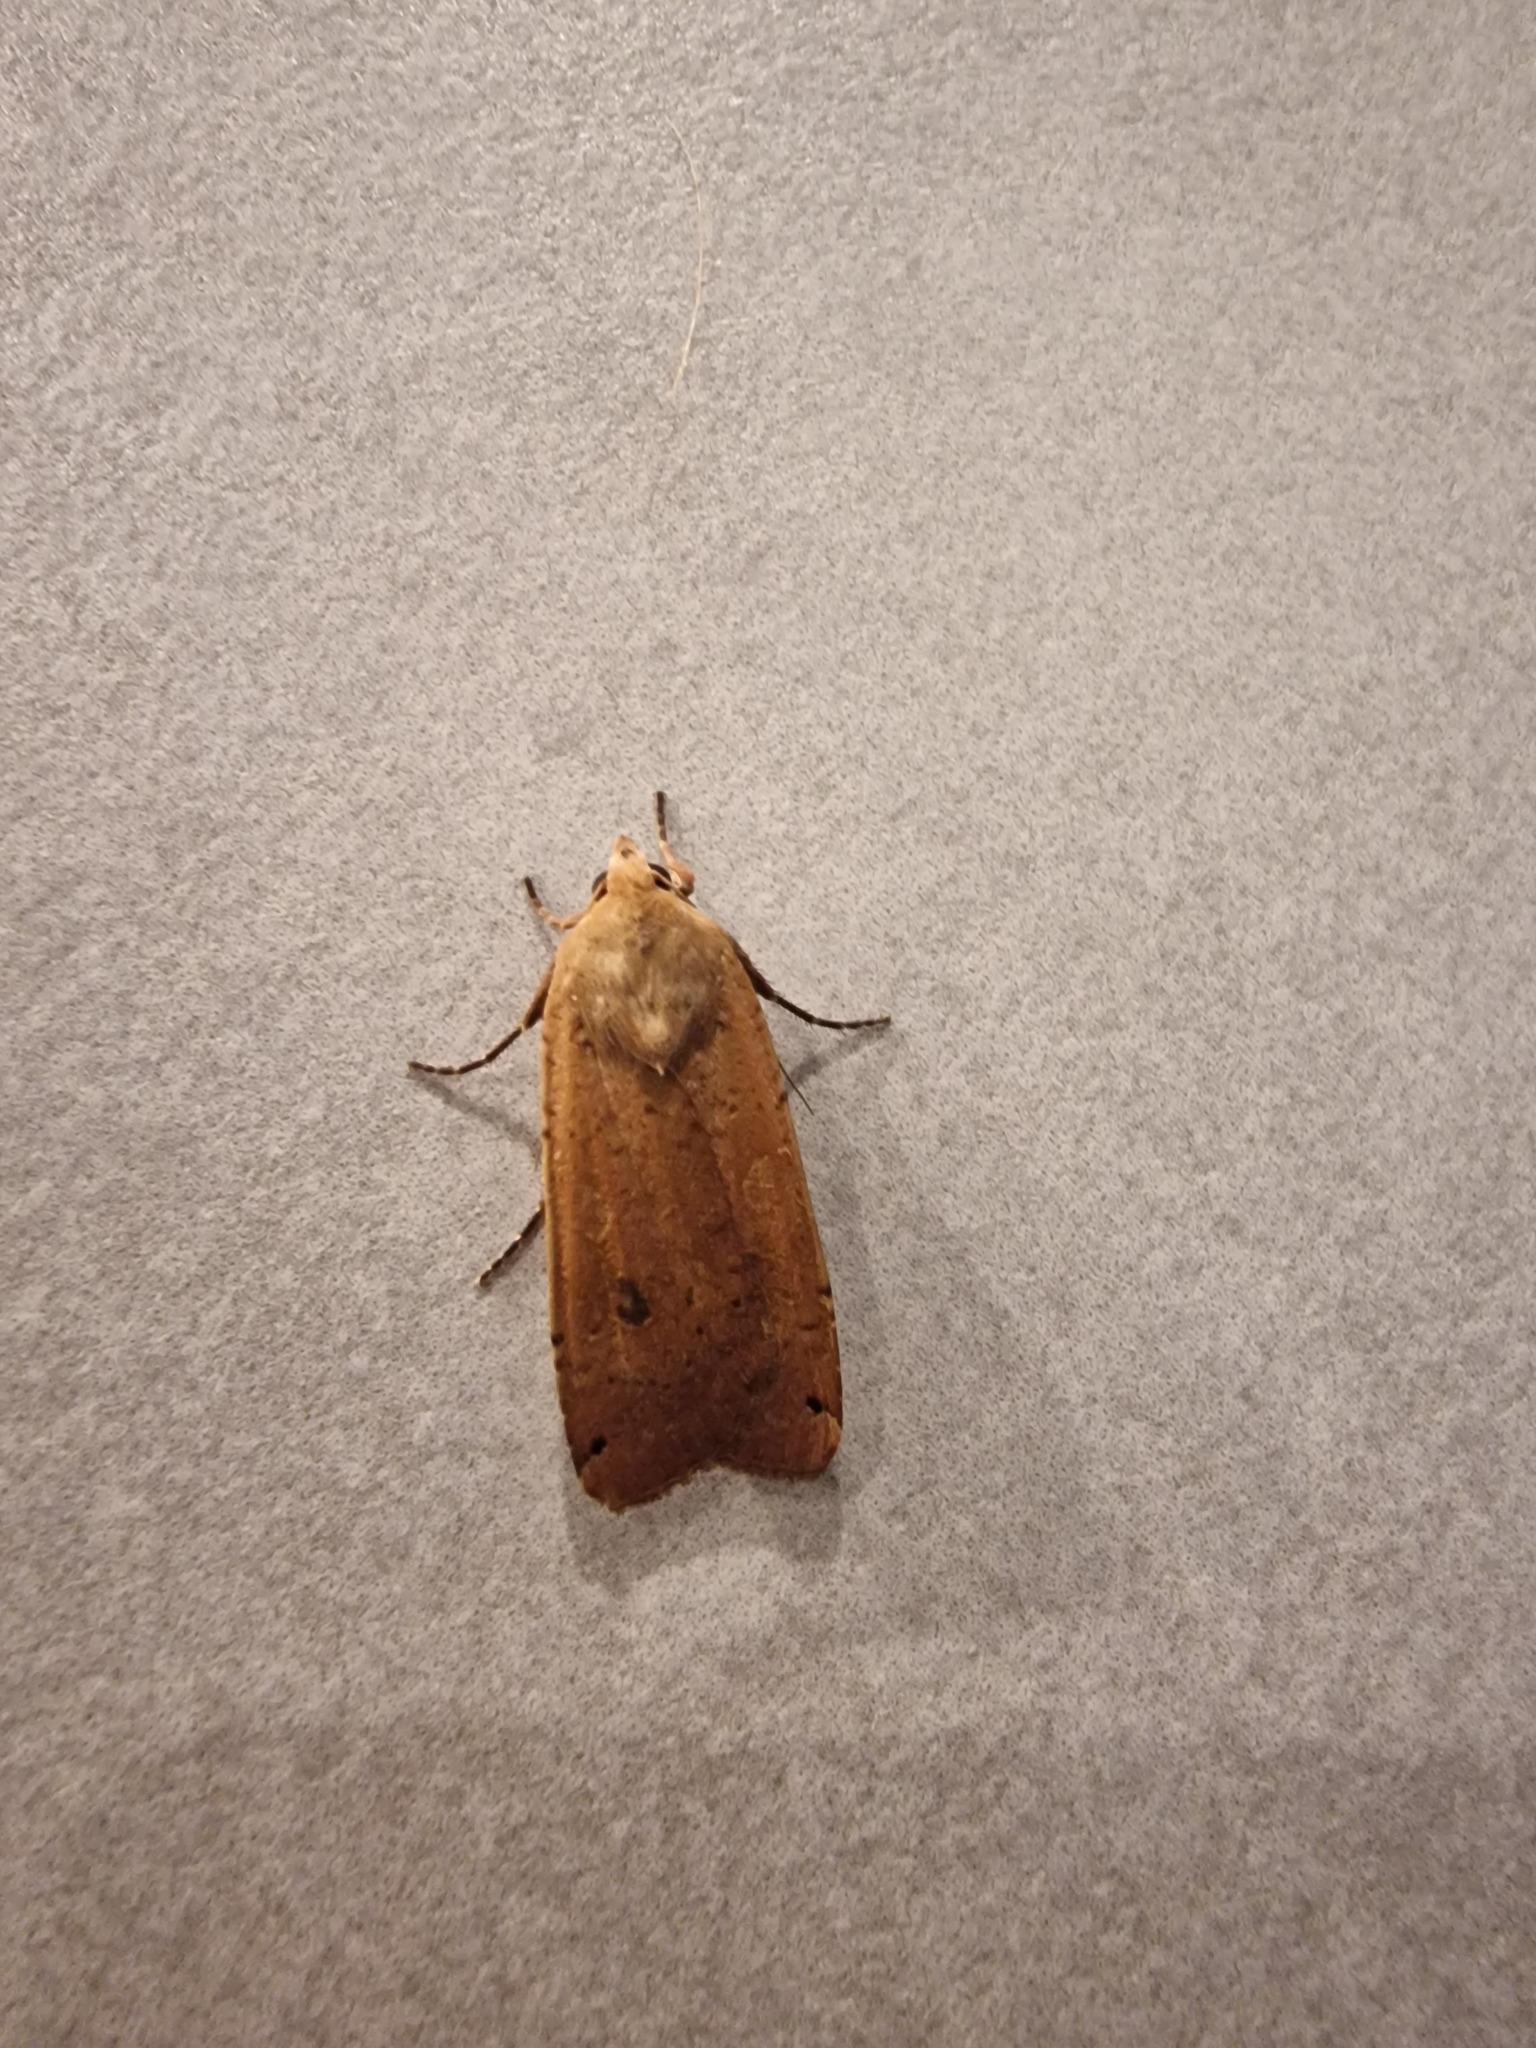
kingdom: Animalia
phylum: Arthropoda
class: Insecta
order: Lepidoptera
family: Noctuidae
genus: Noctua
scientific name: Noctua pronuba
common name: Large yellow underwing
